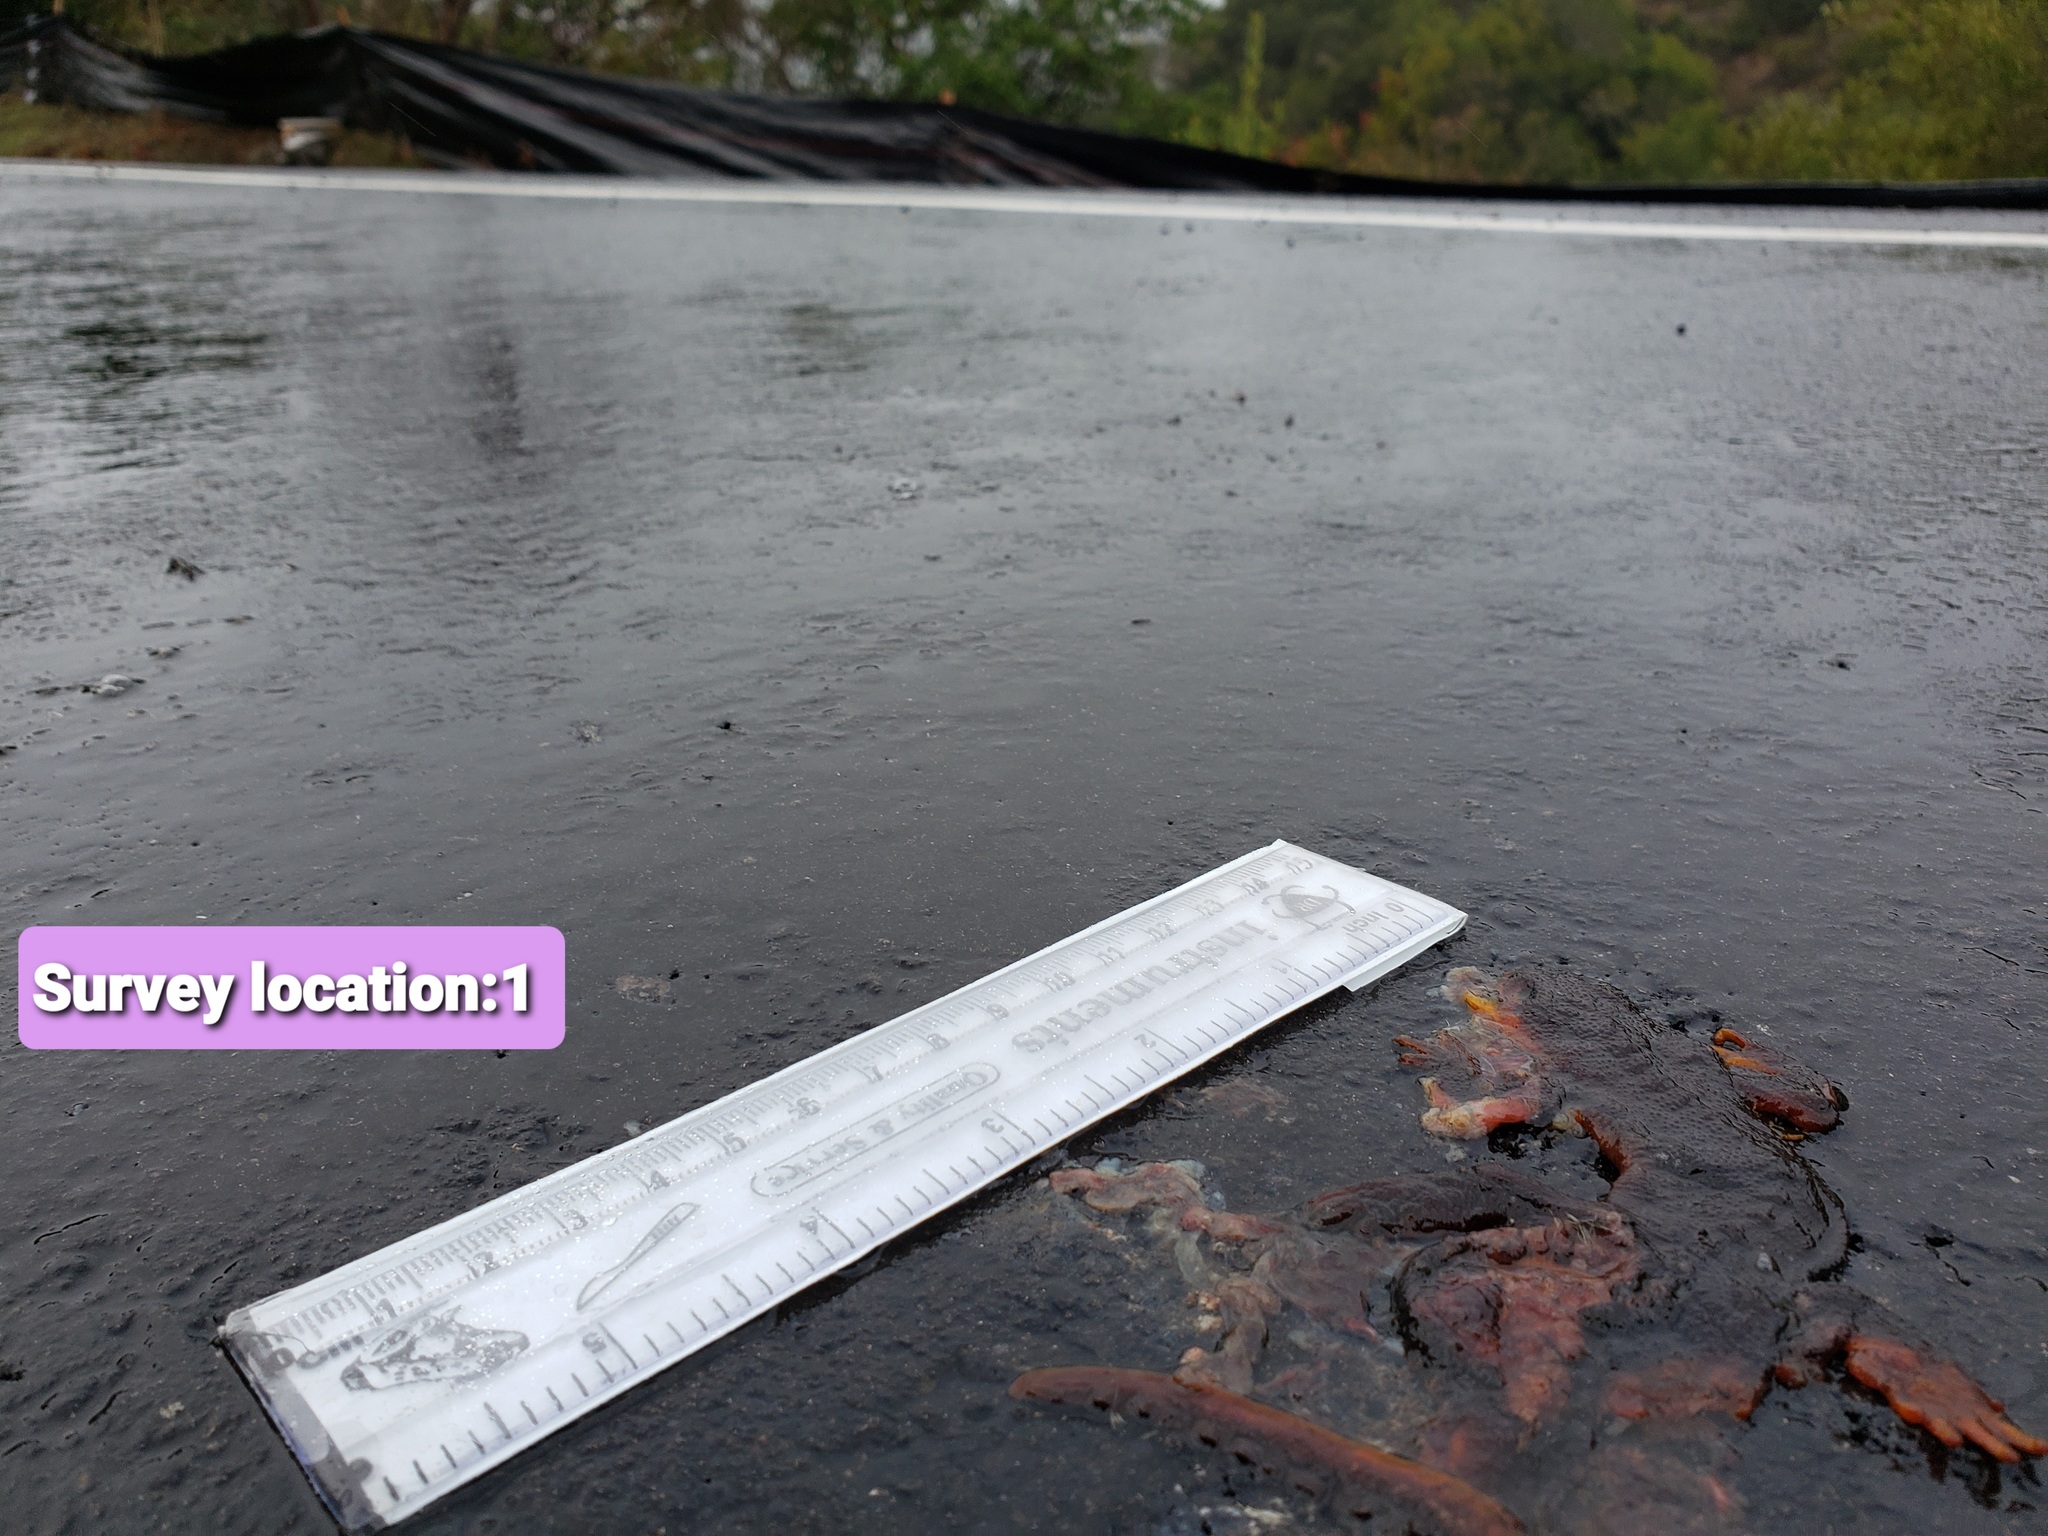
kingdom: Animalia
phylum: Chordata
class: Amphibia
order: Caudata
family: Salamandridae
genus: Taricha
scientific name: Taricha
